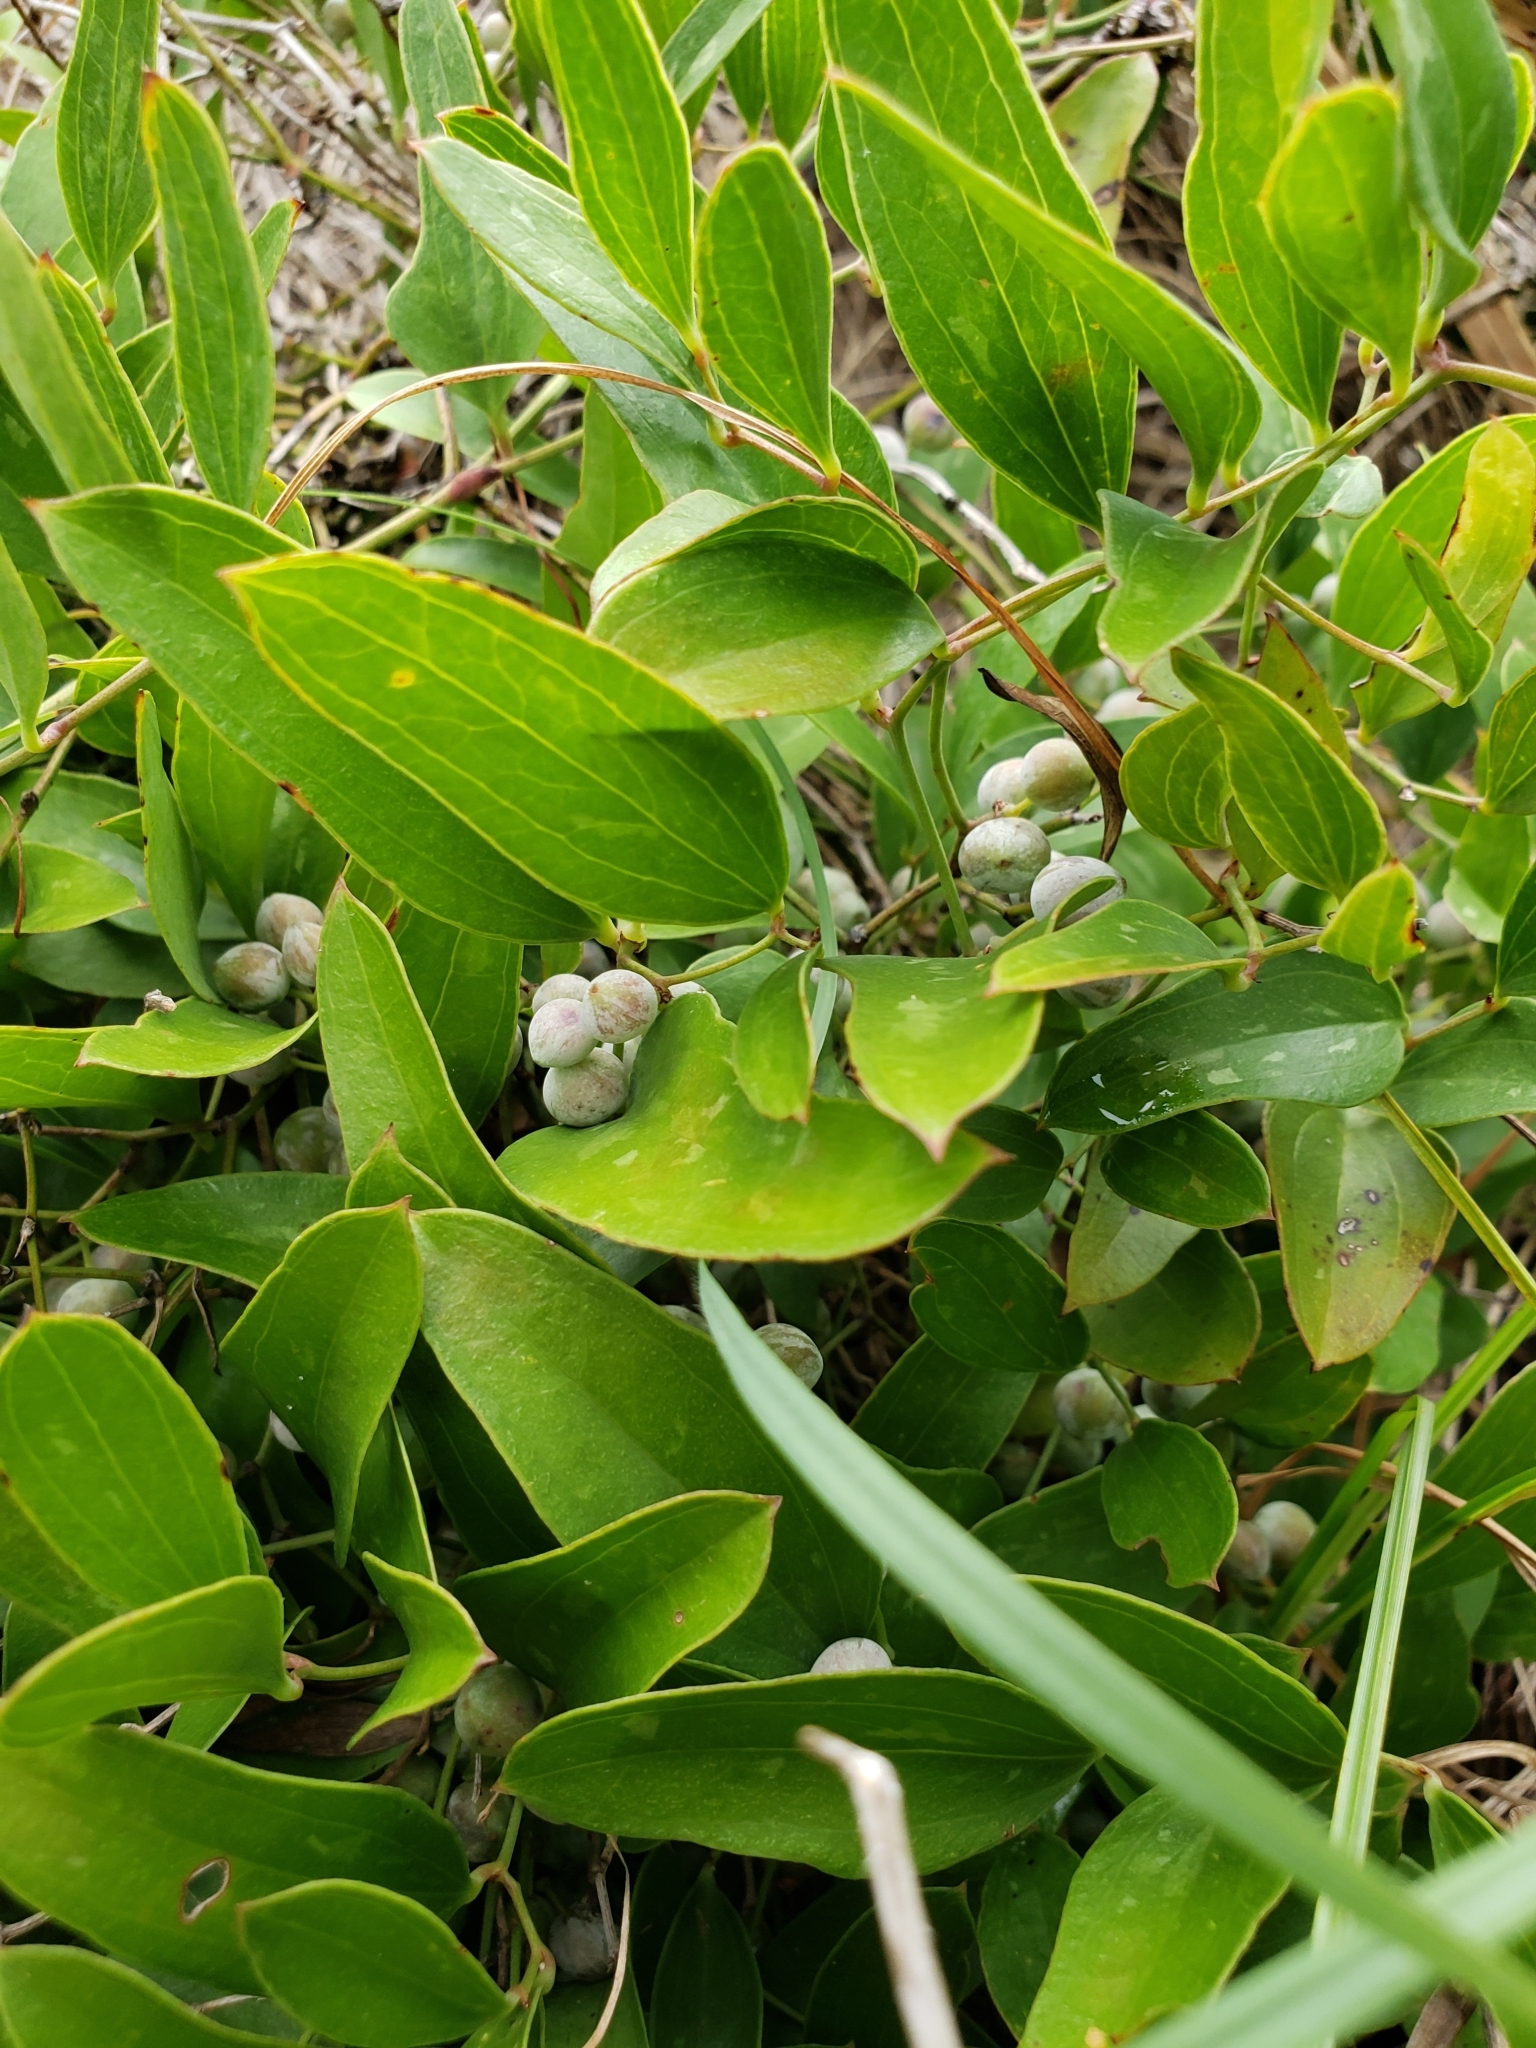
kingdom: Plantae
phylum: Tracheophyta
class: Liliopsida
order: Liliales
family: Smilacaceae
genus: Smilax
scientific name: Smilax auriculata
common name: Wild bamboo
